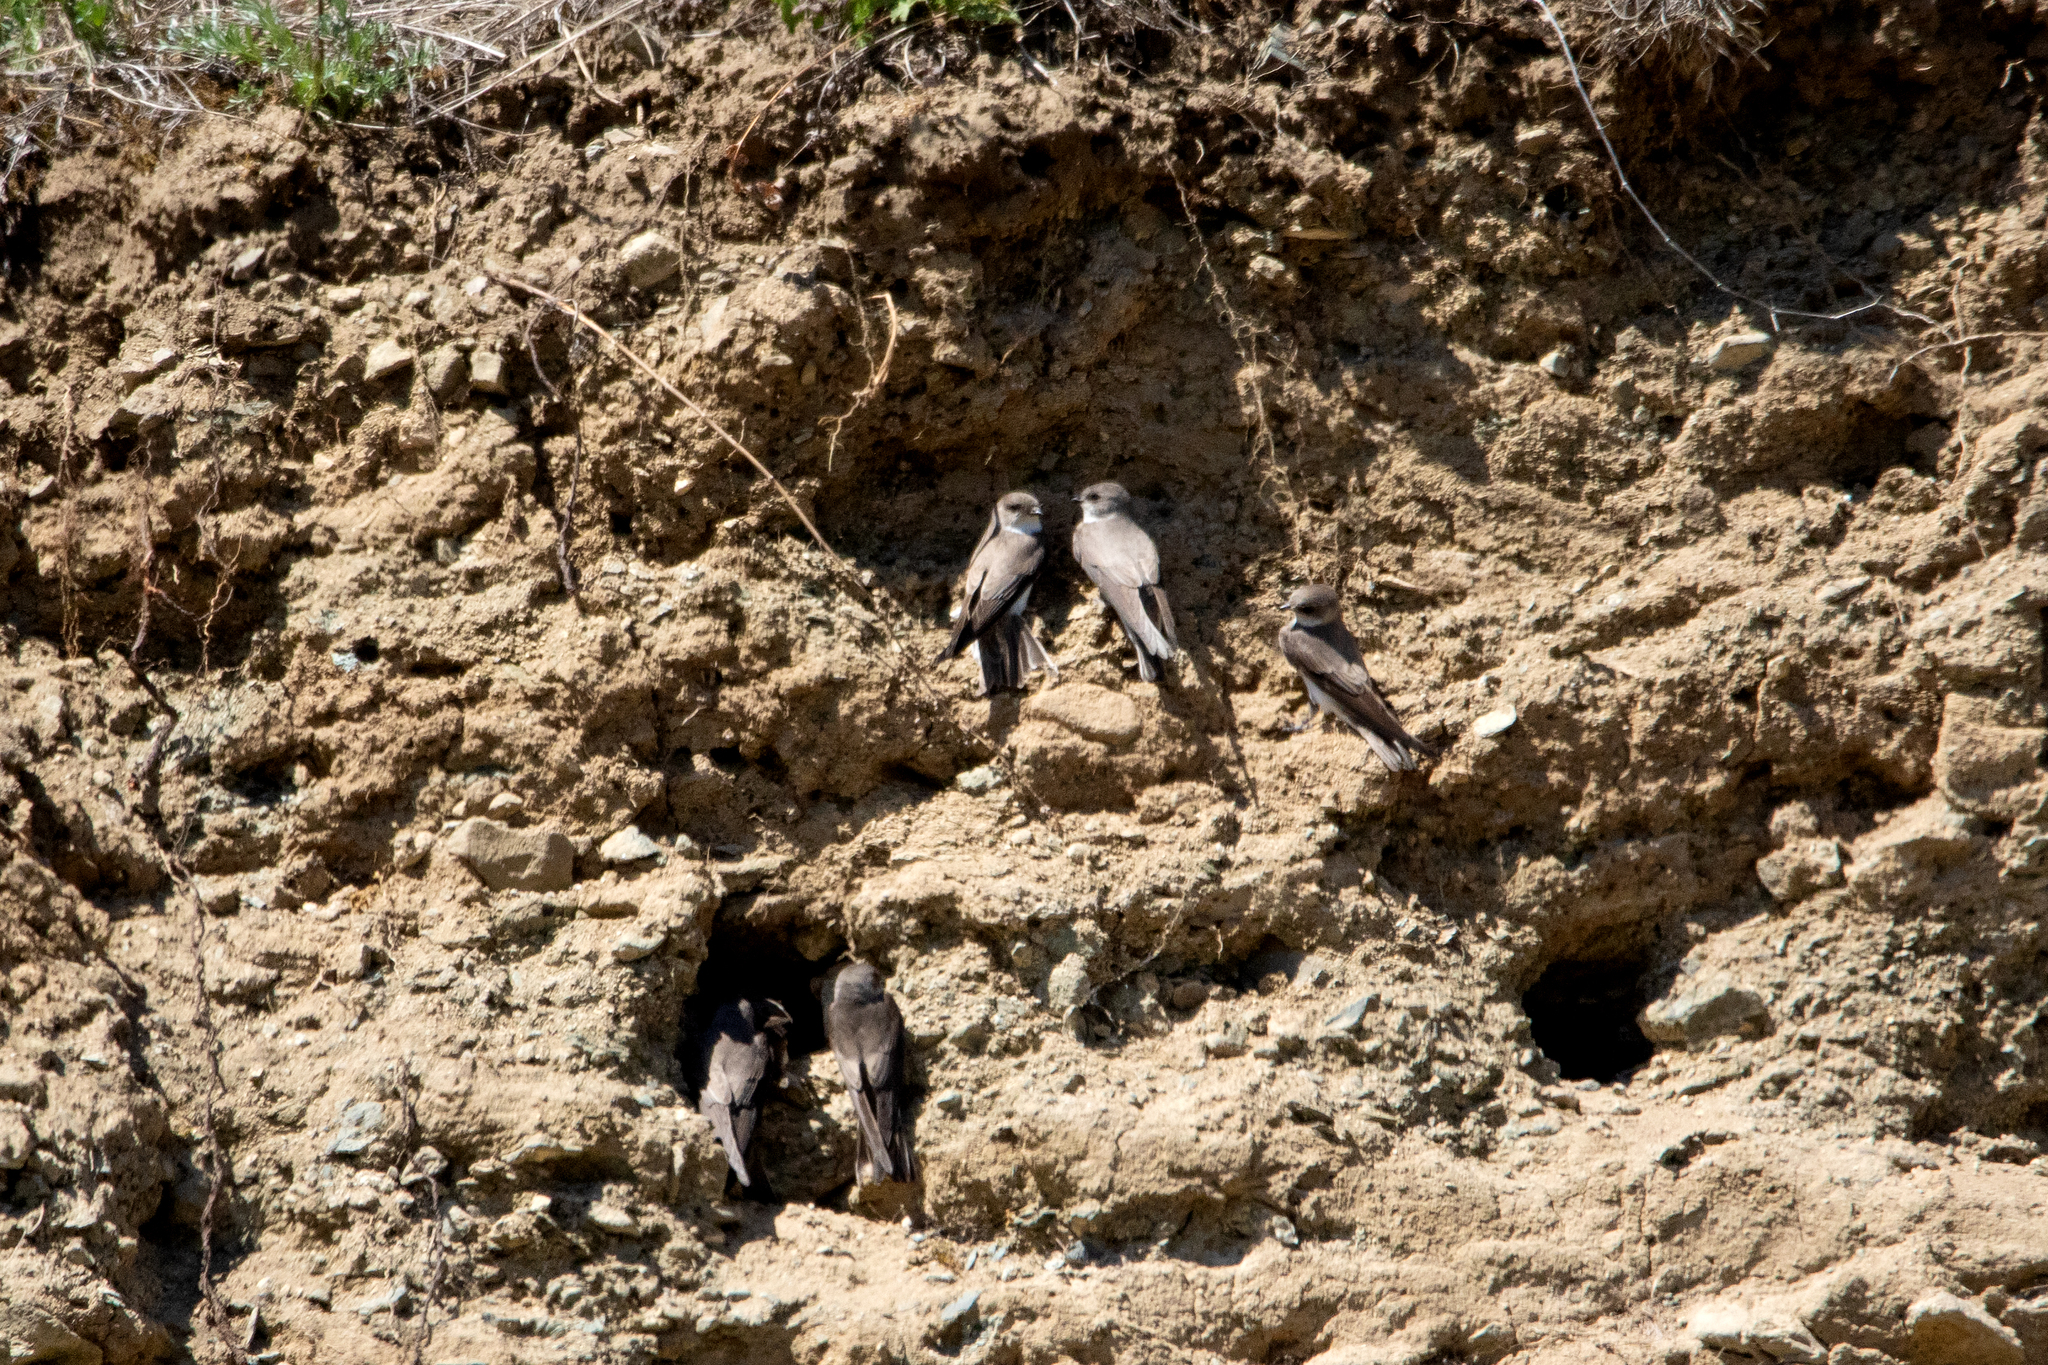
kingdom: Animalia
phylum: Chordata
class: Aves
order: Passeriformes
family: Hirundinidae
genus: Riparia
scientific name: Riparia diluta
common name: Pale martin
